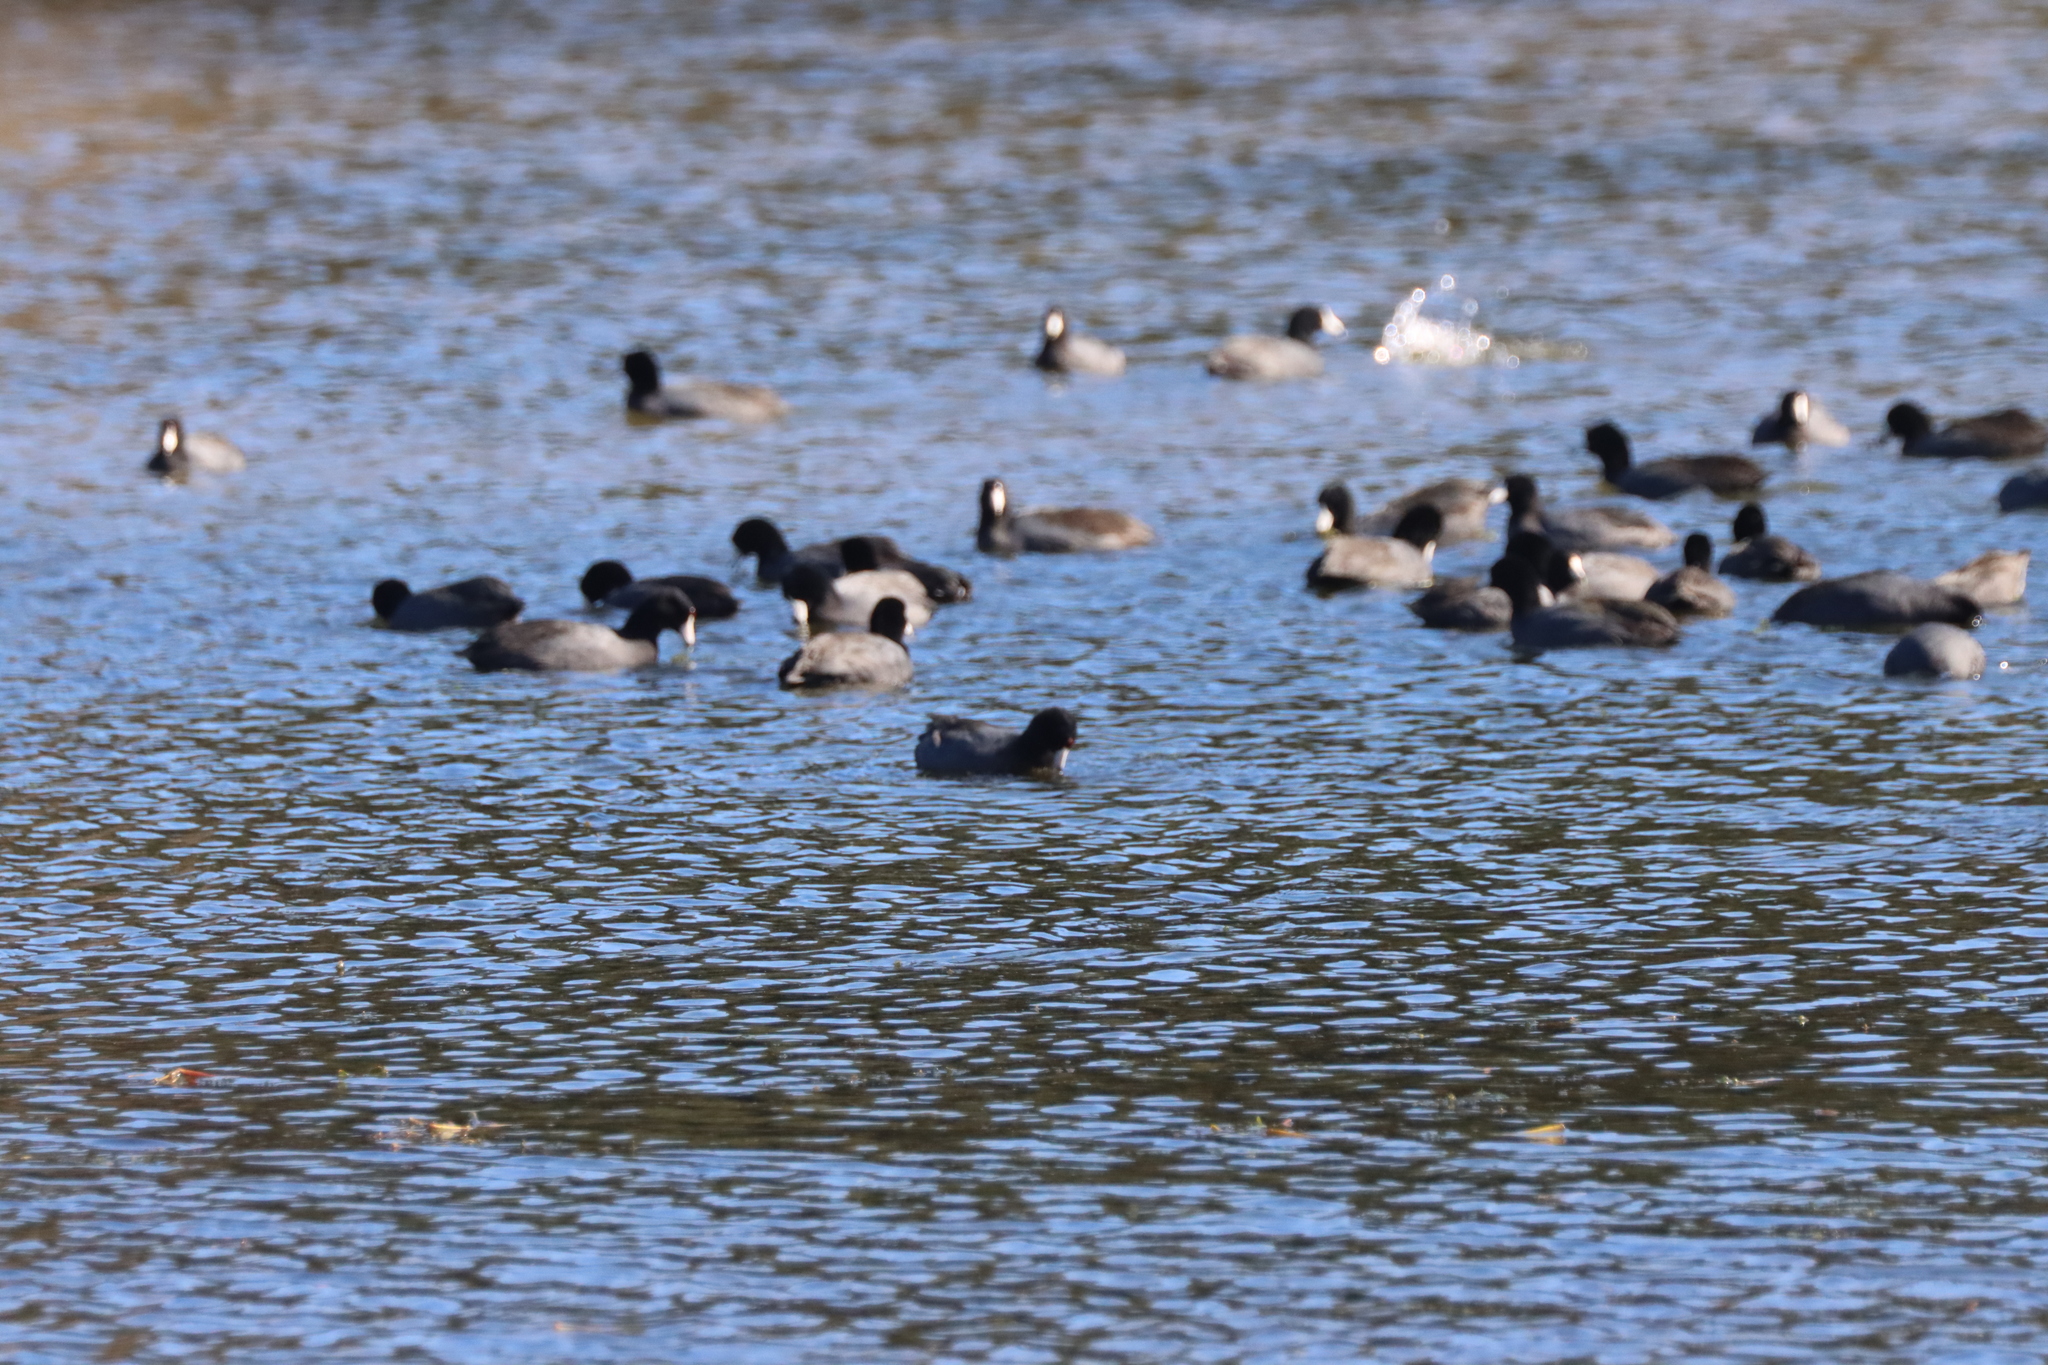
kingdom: Animalia
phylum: Chordata
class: Aves
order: Gruiformes
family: Rallidae
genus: Fulica
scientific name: Fulica americana
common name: American coot
